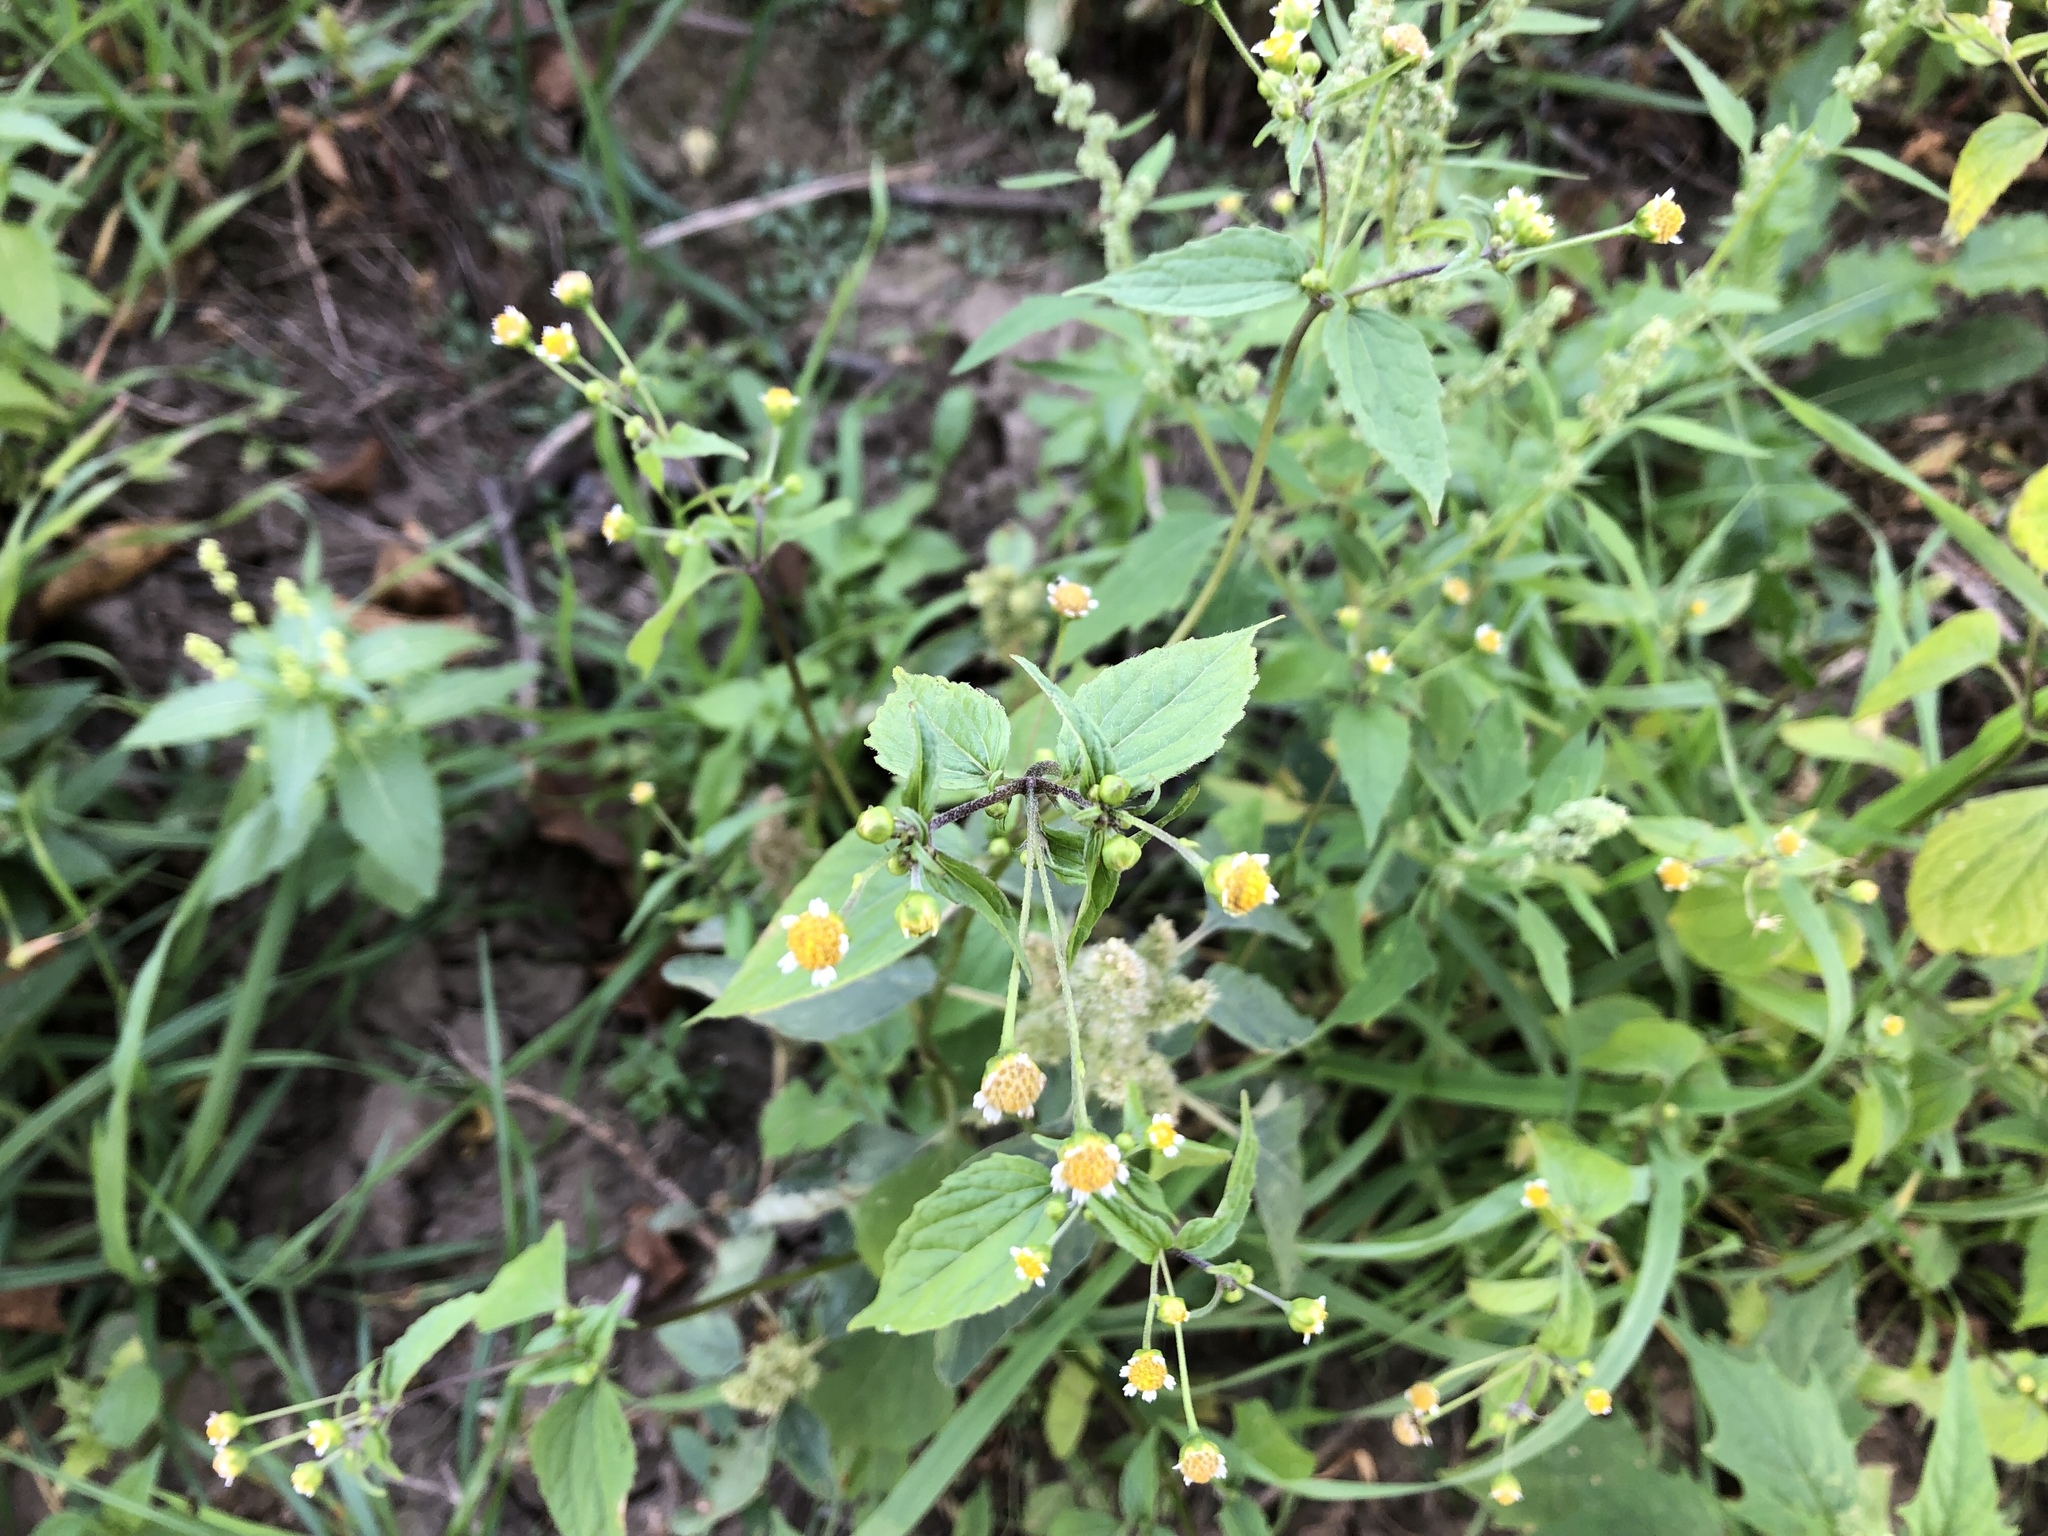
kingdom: Plantae
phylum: Tracheophyta
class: Magnoliopsida
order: Asterales
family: Asteraceae
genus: Galinsoga
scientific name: Galinsoga parviflora
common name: Gallant soldier
